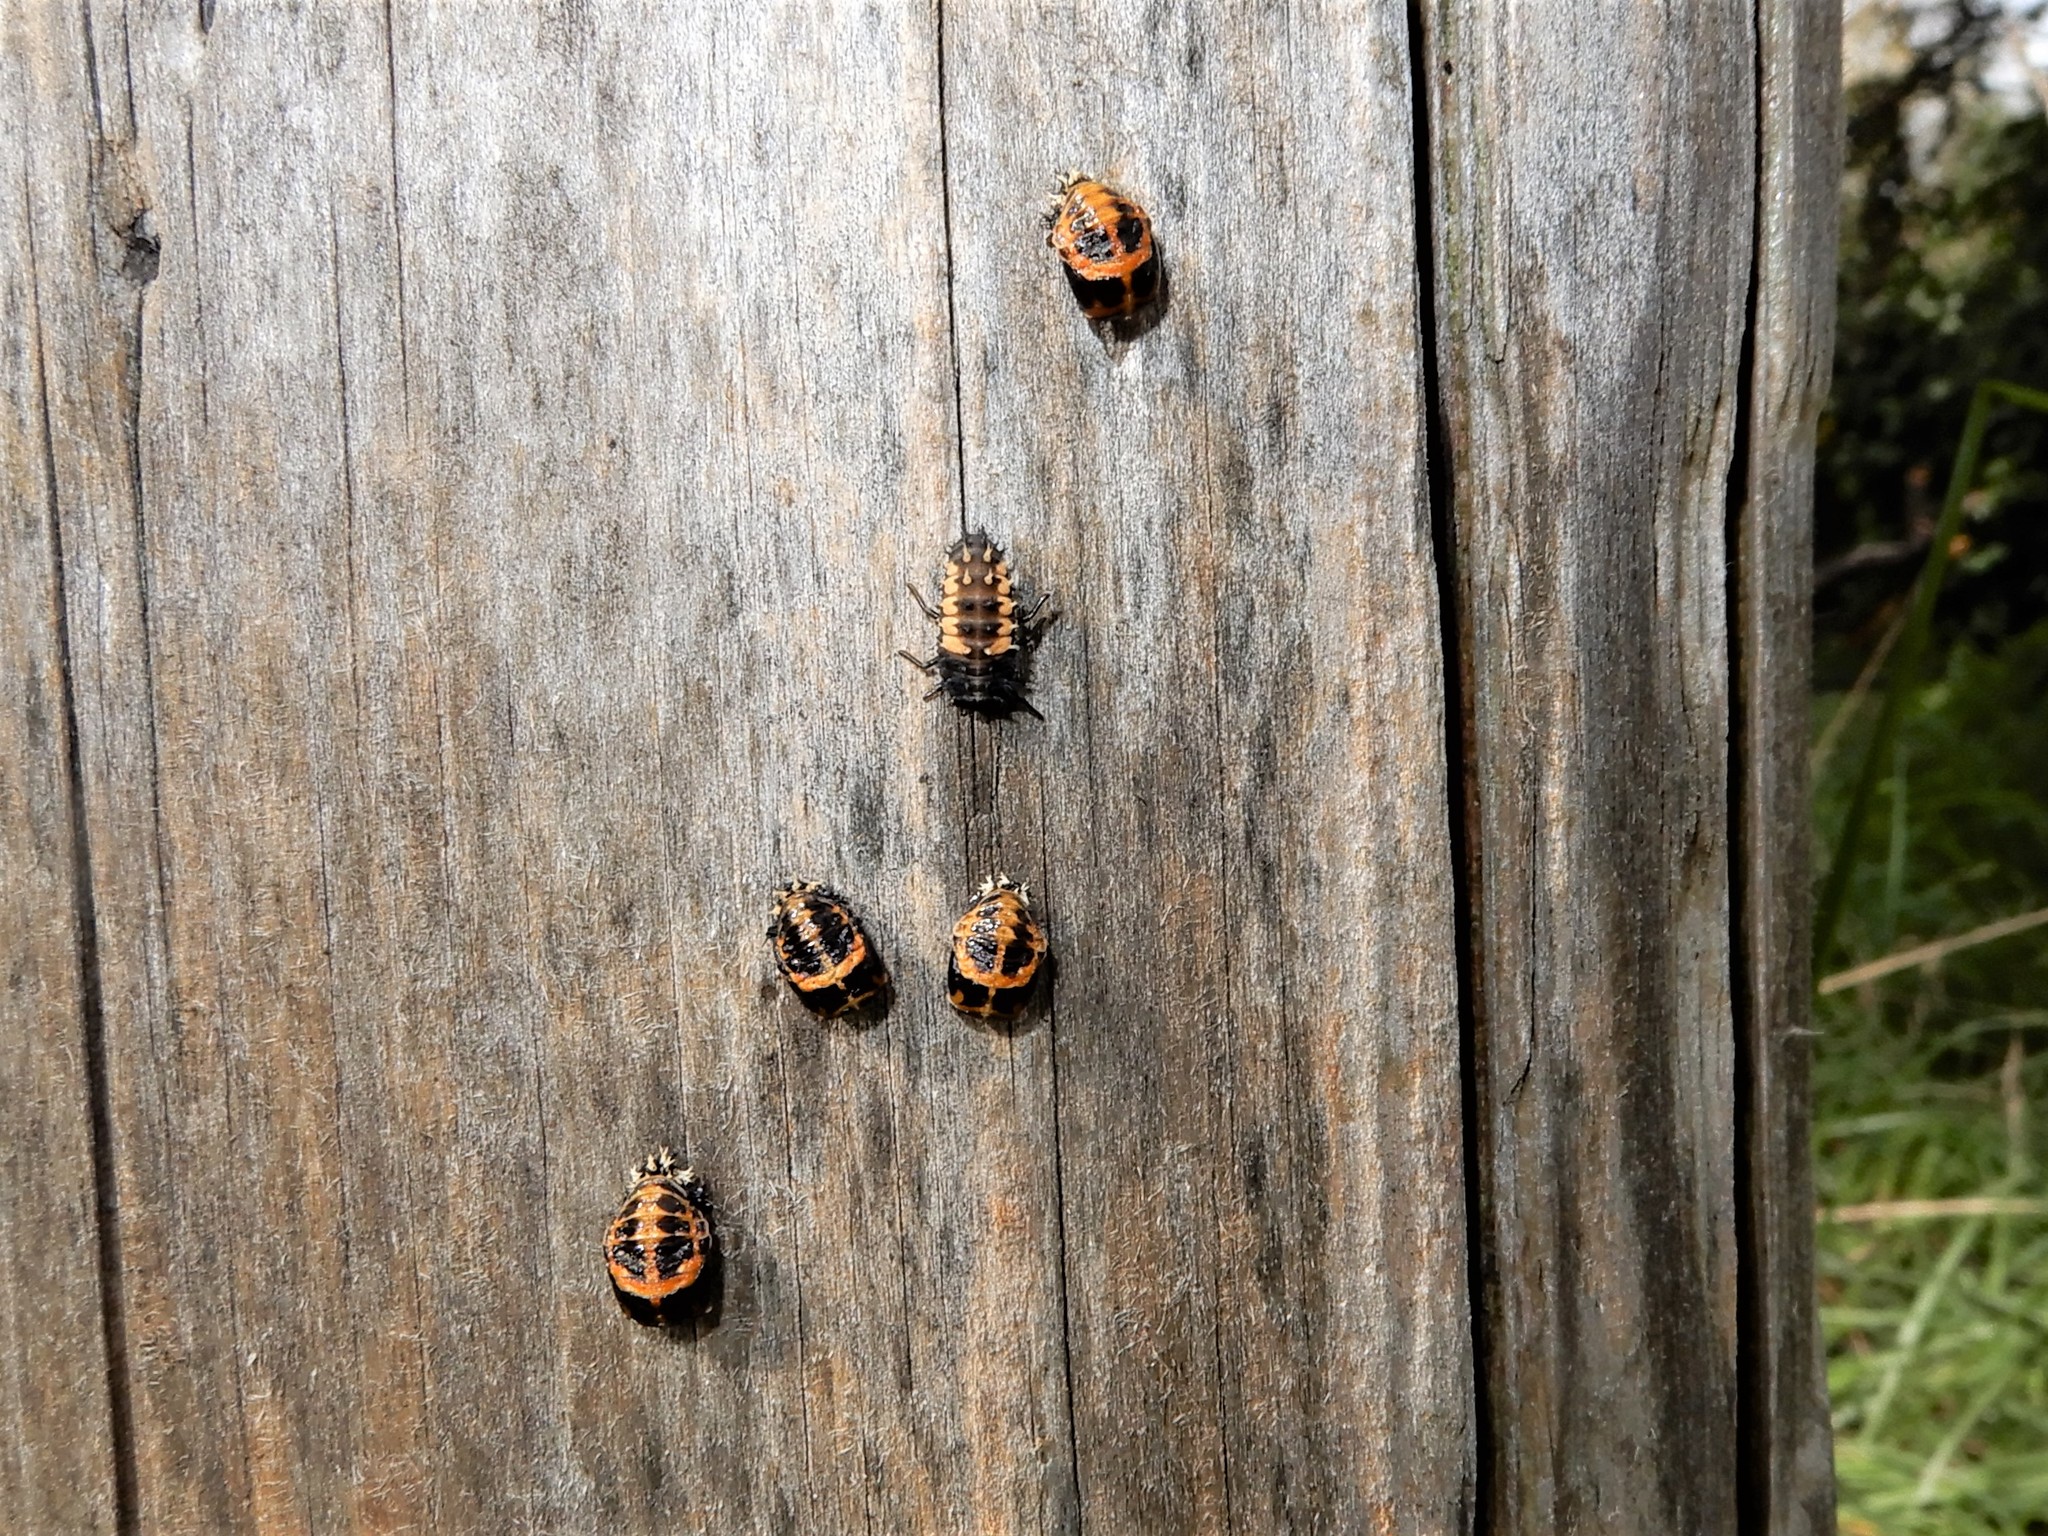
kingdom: Animalia
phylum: Arthropoda
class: Insecta
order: Coleoptera
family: Coccinellidae
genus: Harmonia
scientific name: Harmonia axyridis
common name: Harlequin ladybird
